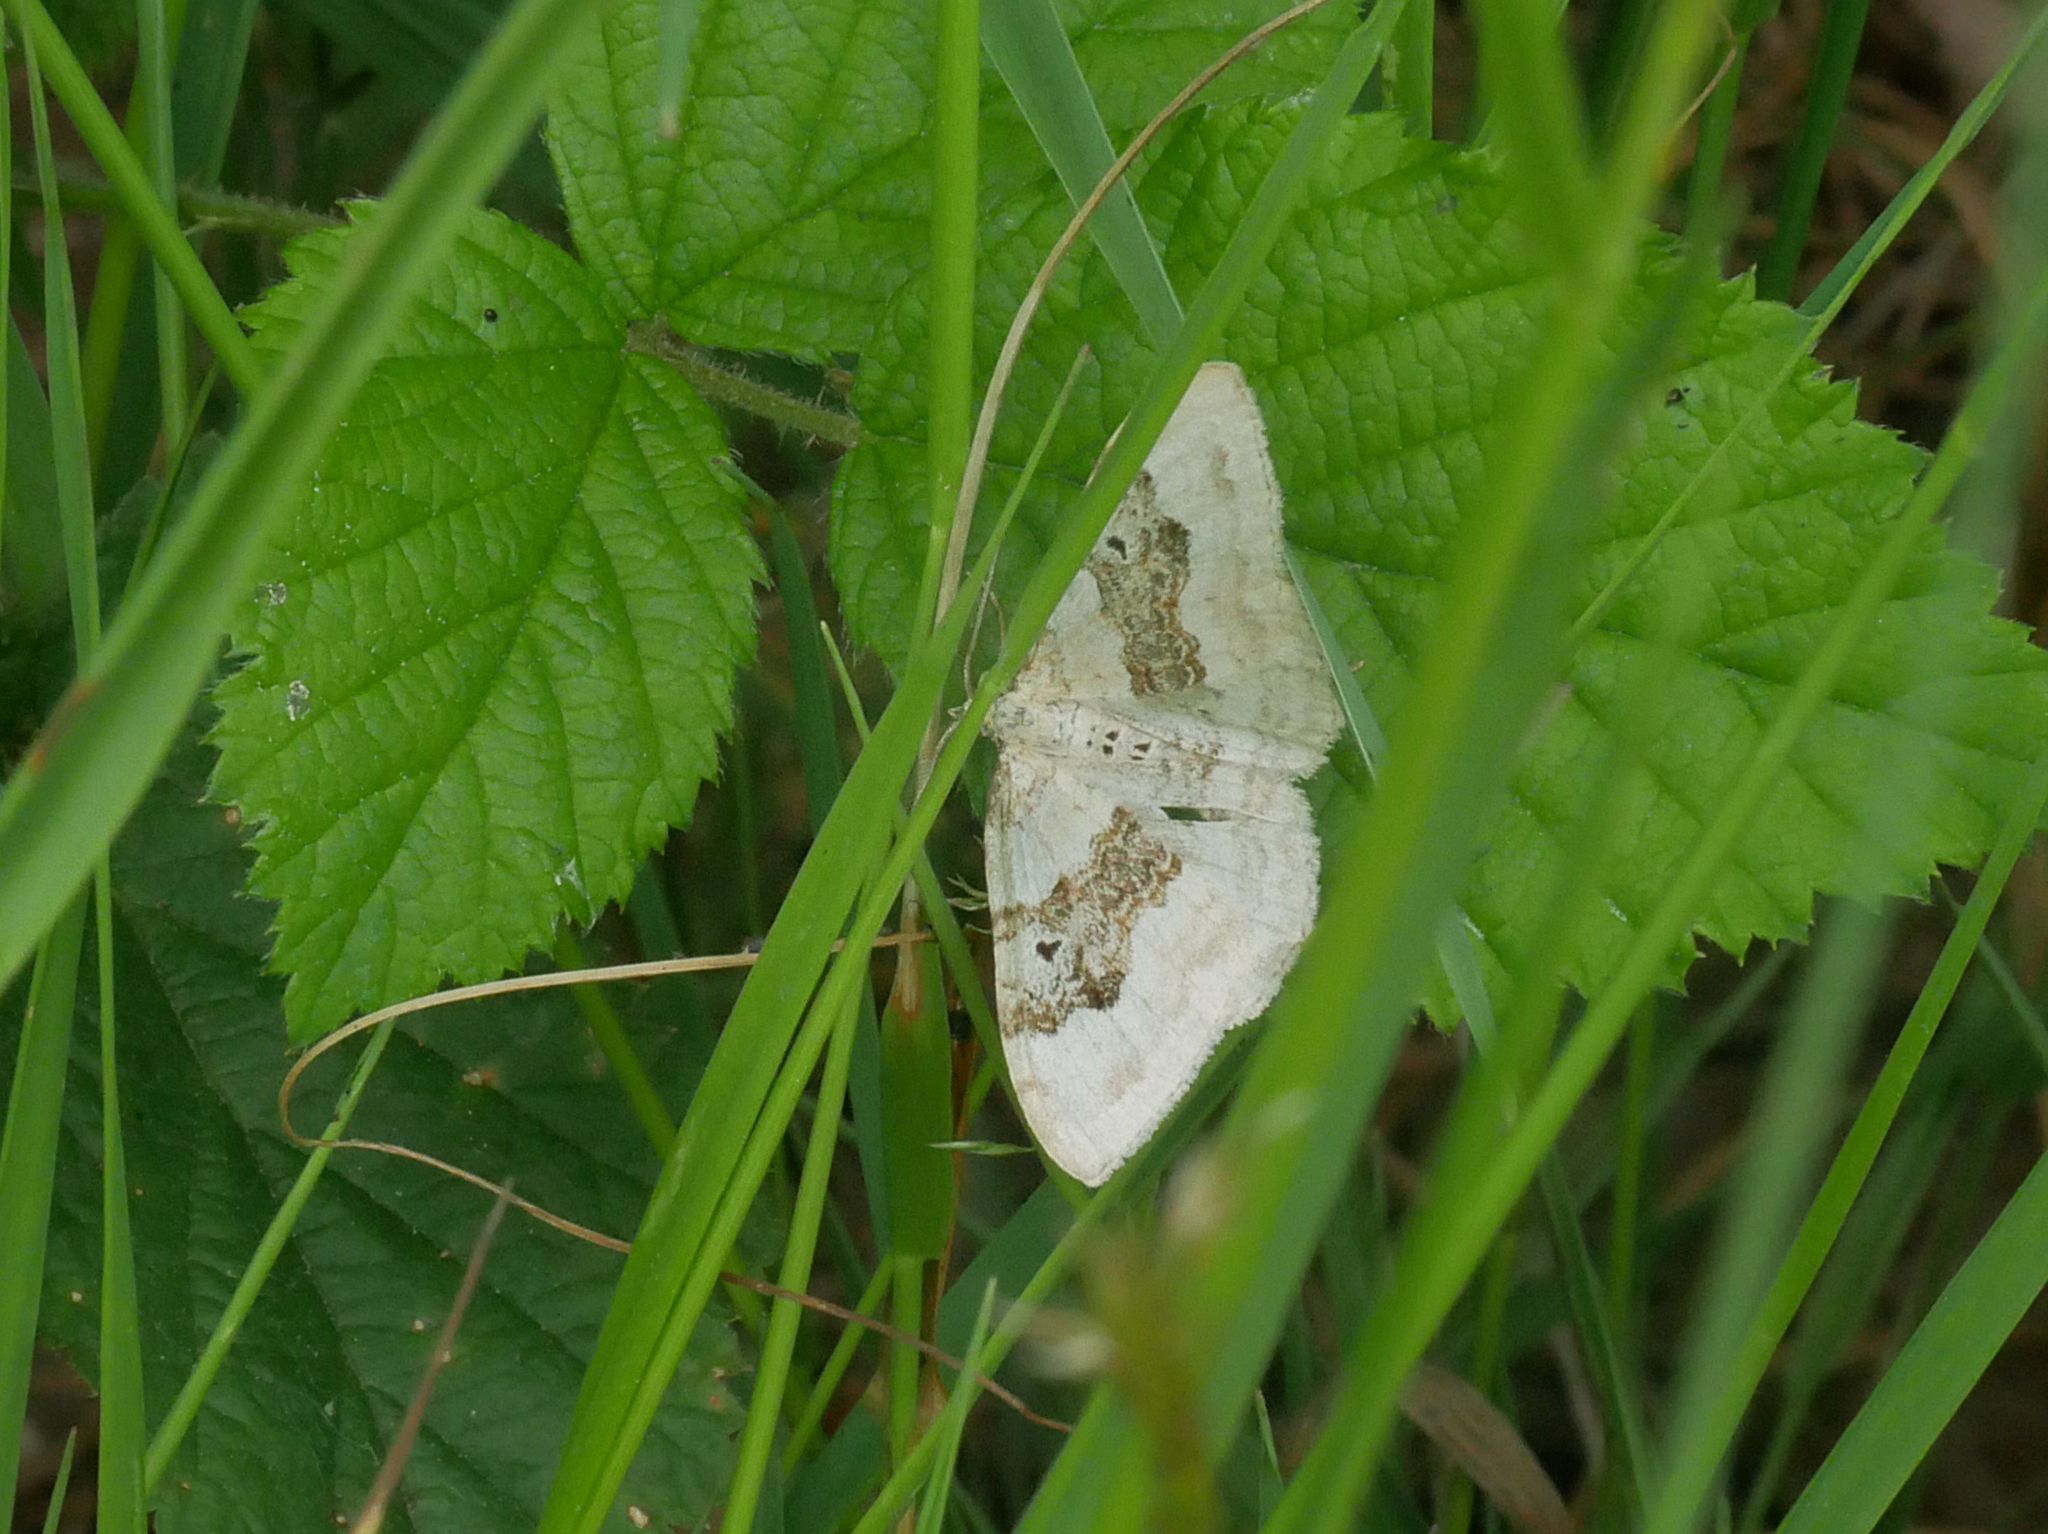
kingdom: Animalia
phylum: Arthropoda
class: Insecta
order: Lepidoptera
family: Geometridae
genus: Xanthorhoe
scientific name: Xanthorhoe montanata
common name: Silver-ground carpet
